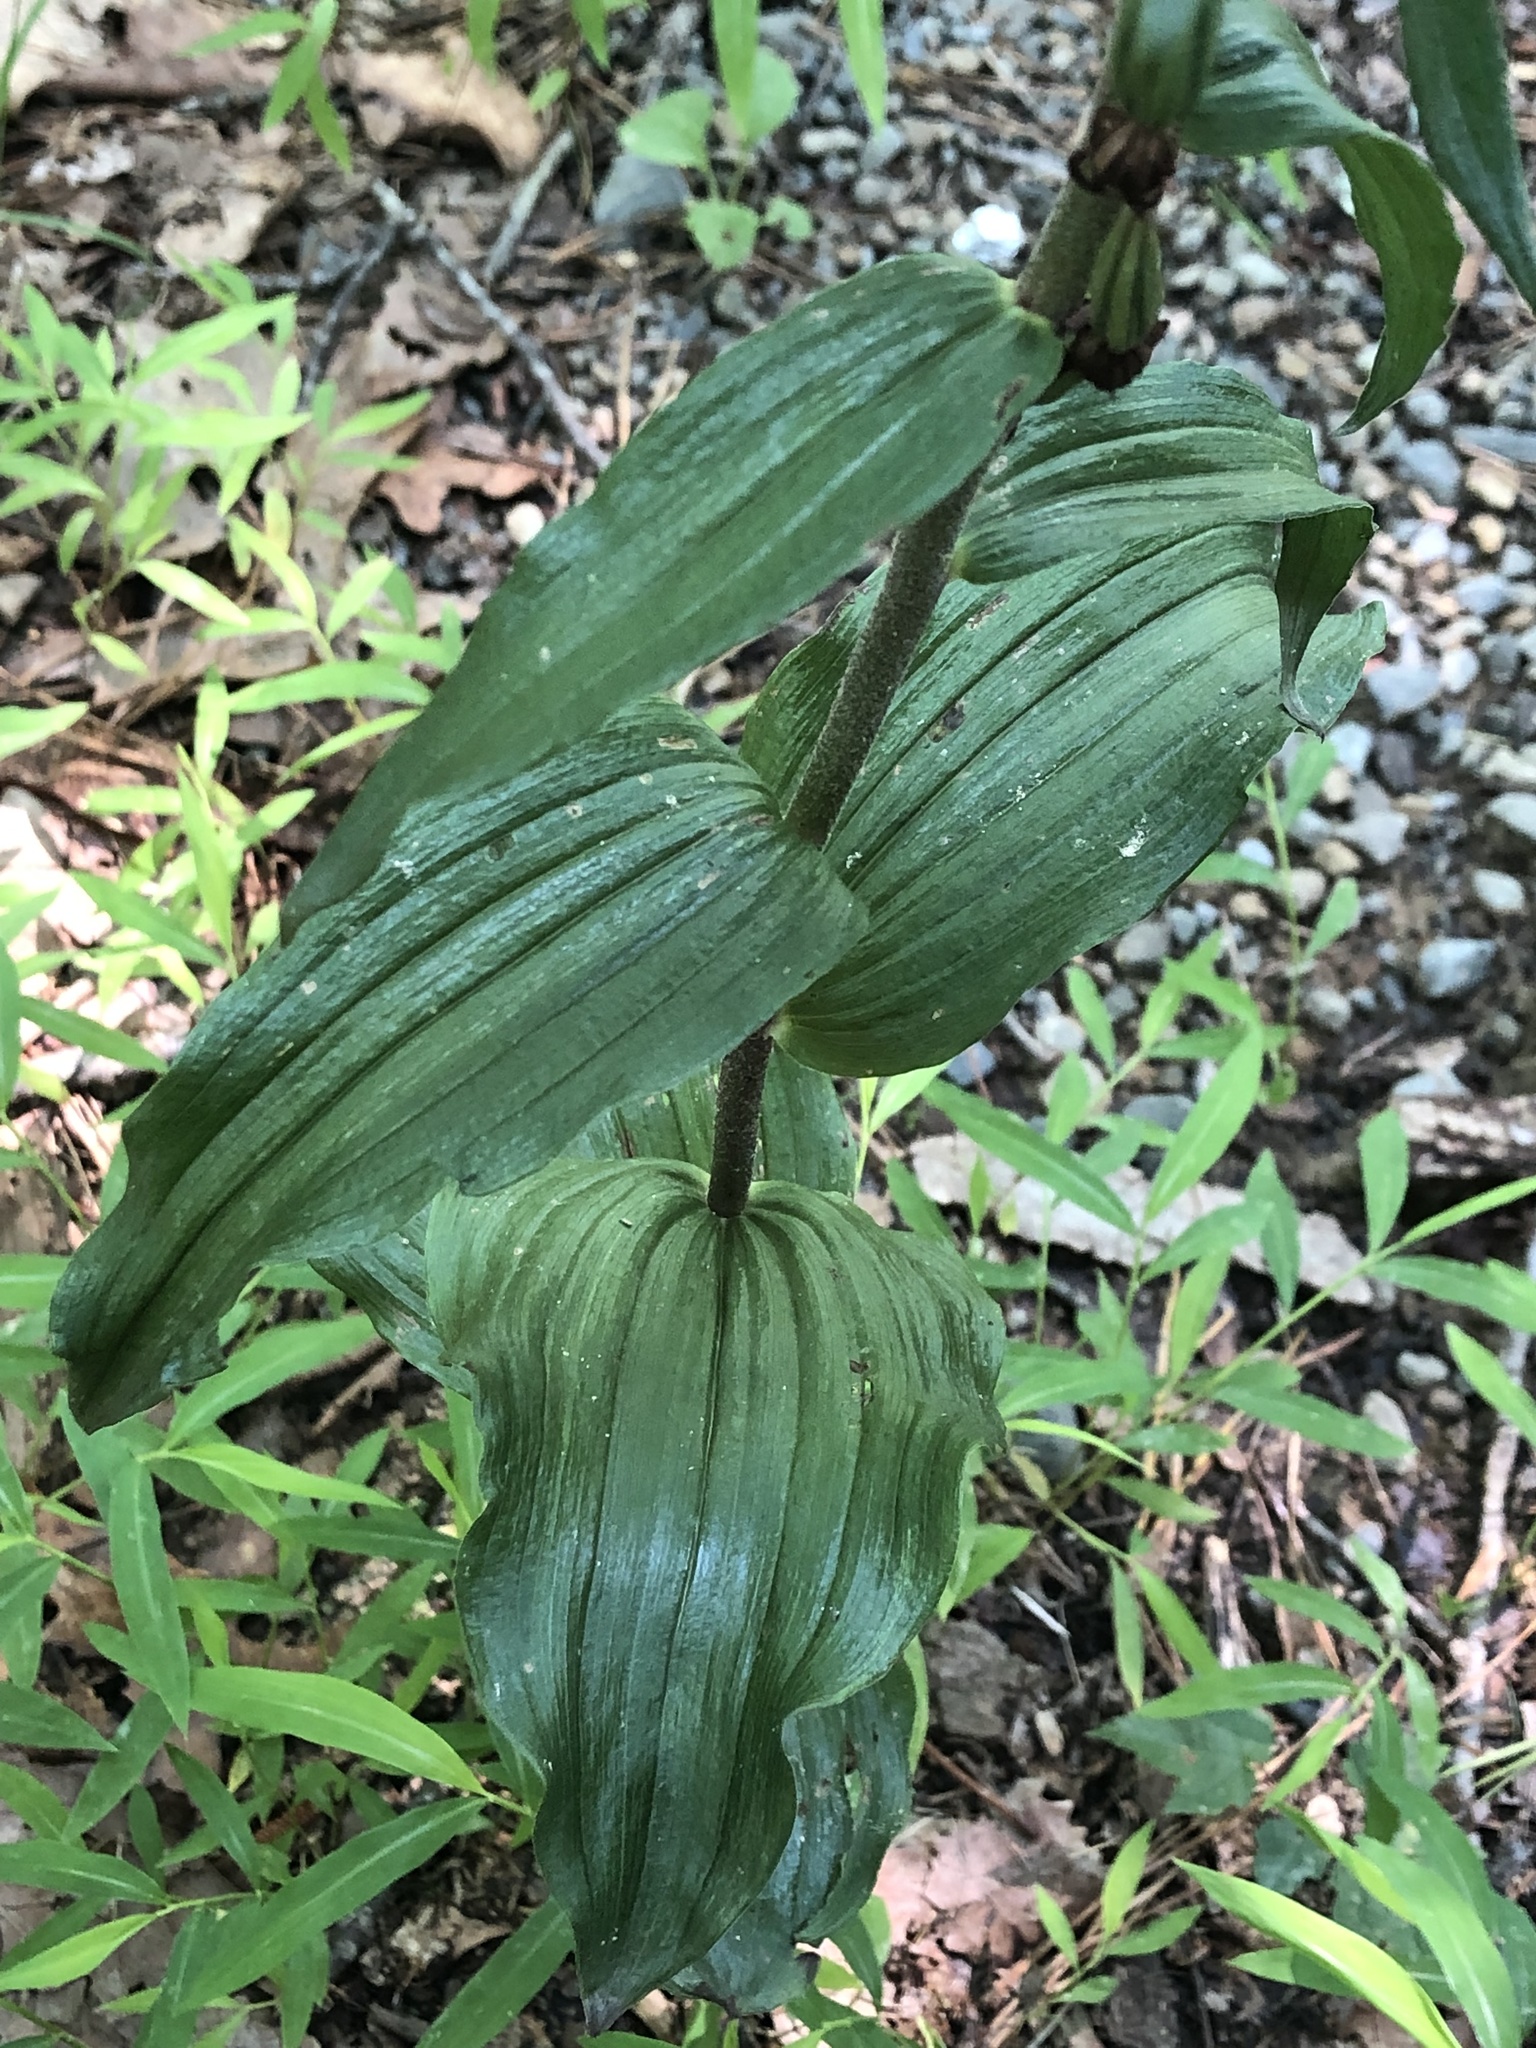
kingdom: Plantae
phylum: Tracheophyta
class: Liliopsida
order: Asparagales
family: Orchidaceae
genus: Epipactis
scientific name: Epipactis helleborine
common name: Broad-leaved helleborine
